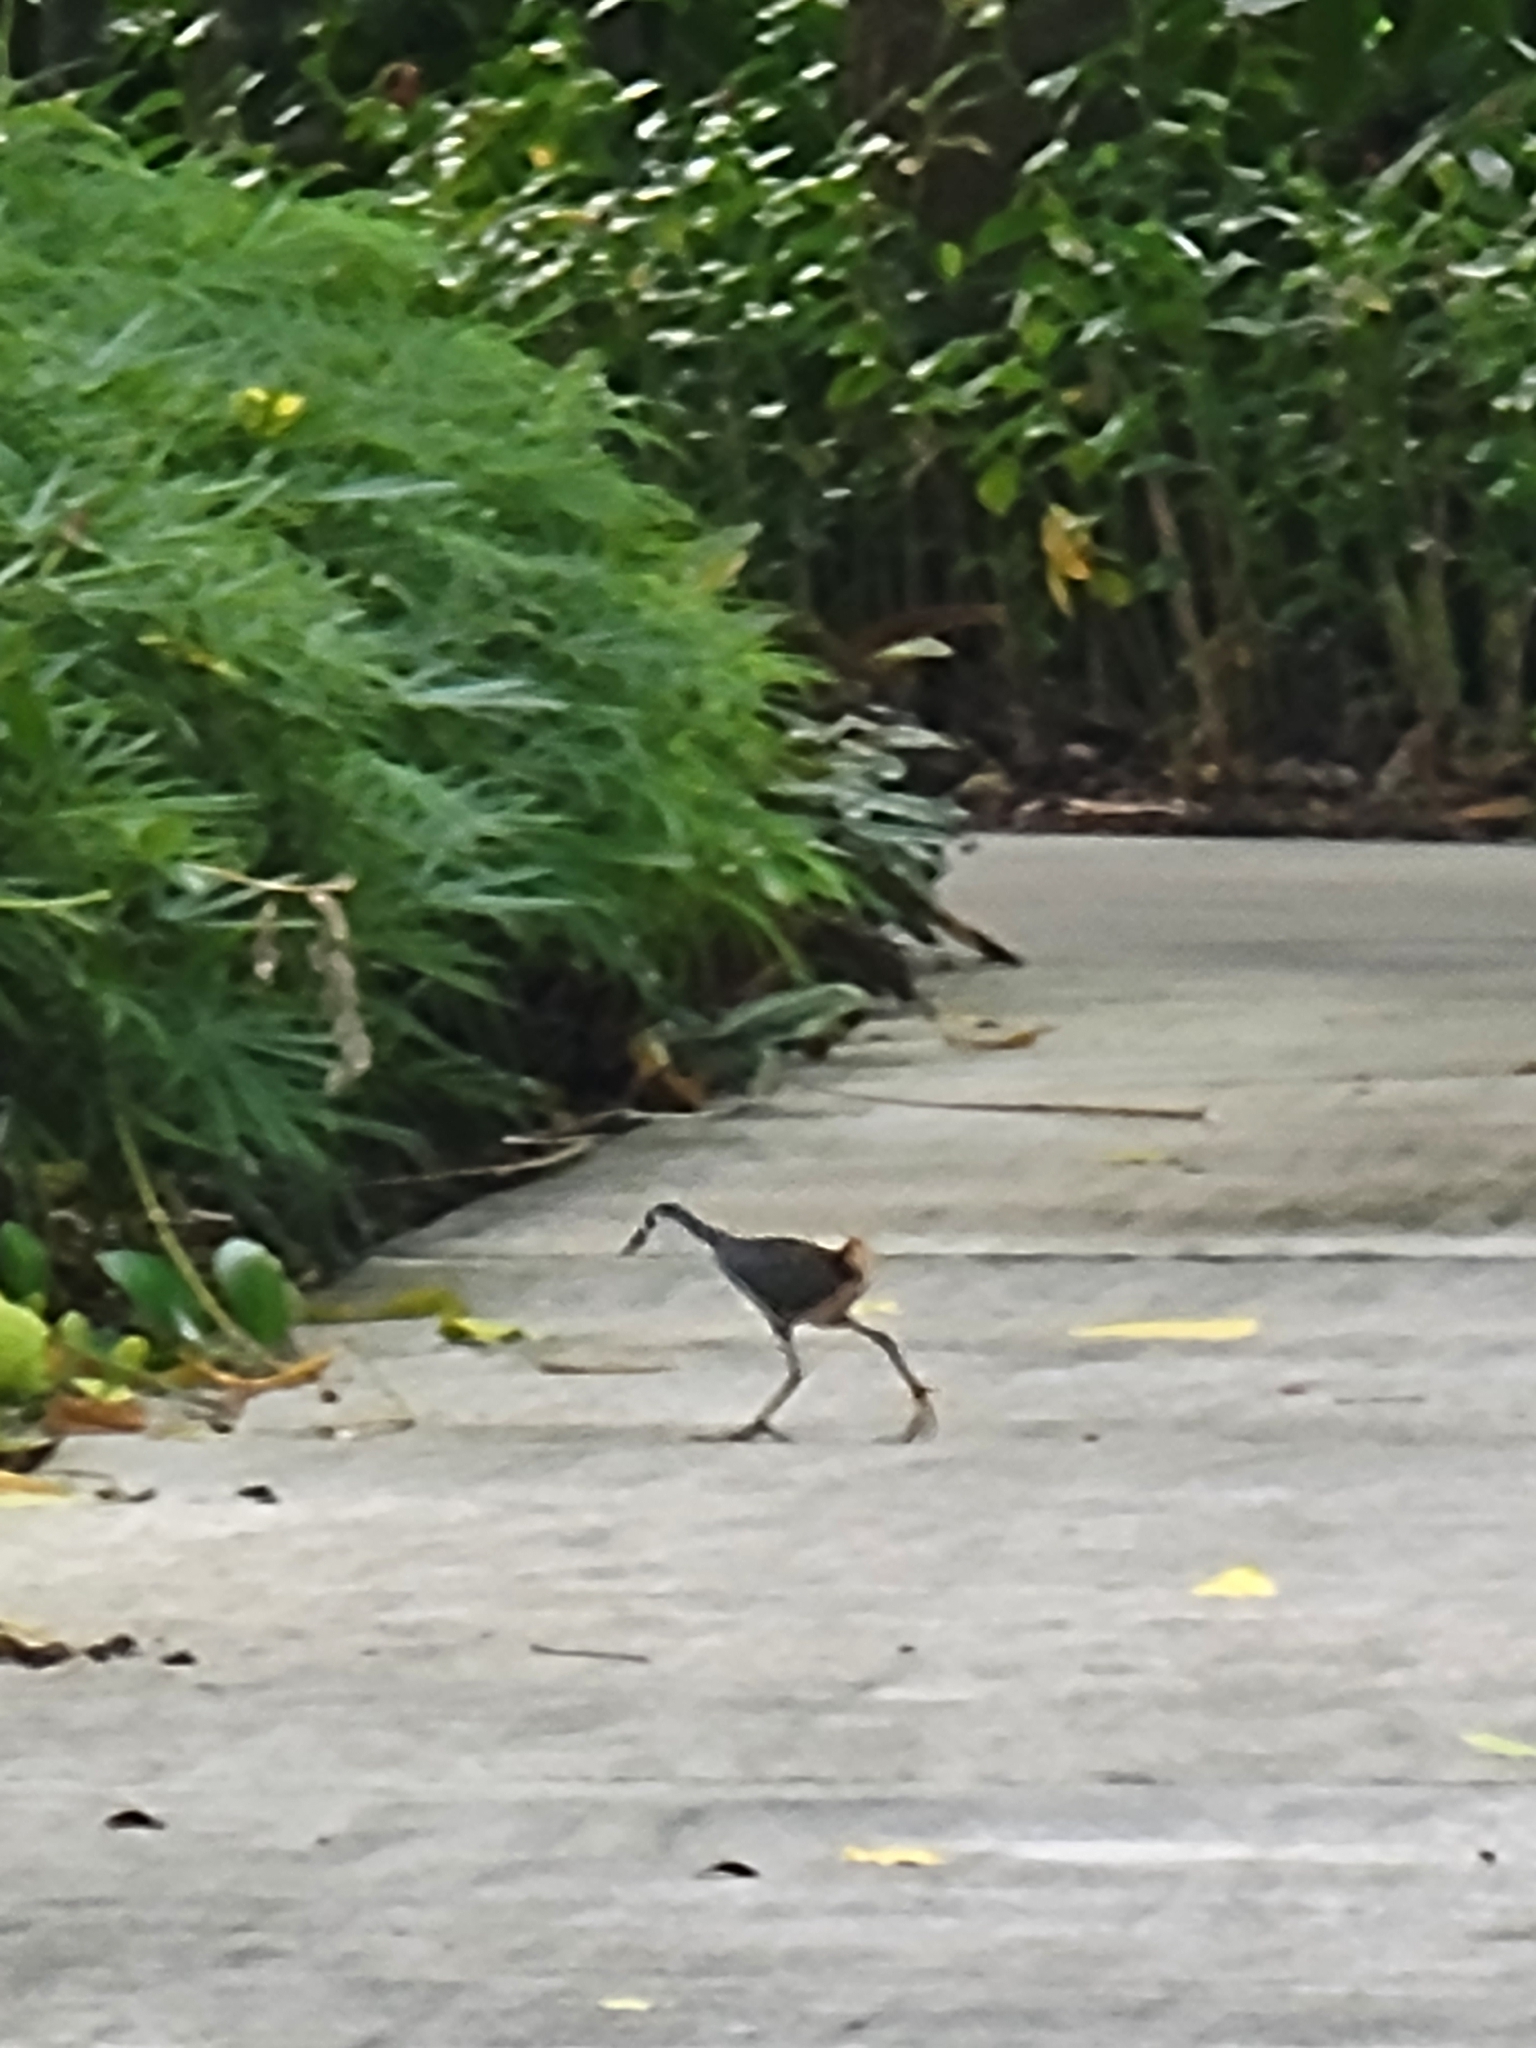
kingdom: Animalia
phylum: Chordata
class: Aves
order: Gruiformes
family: Rallidae
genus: Amaurornis
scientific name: Amaurornis phoenicurus
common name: White-breasted waterhen
